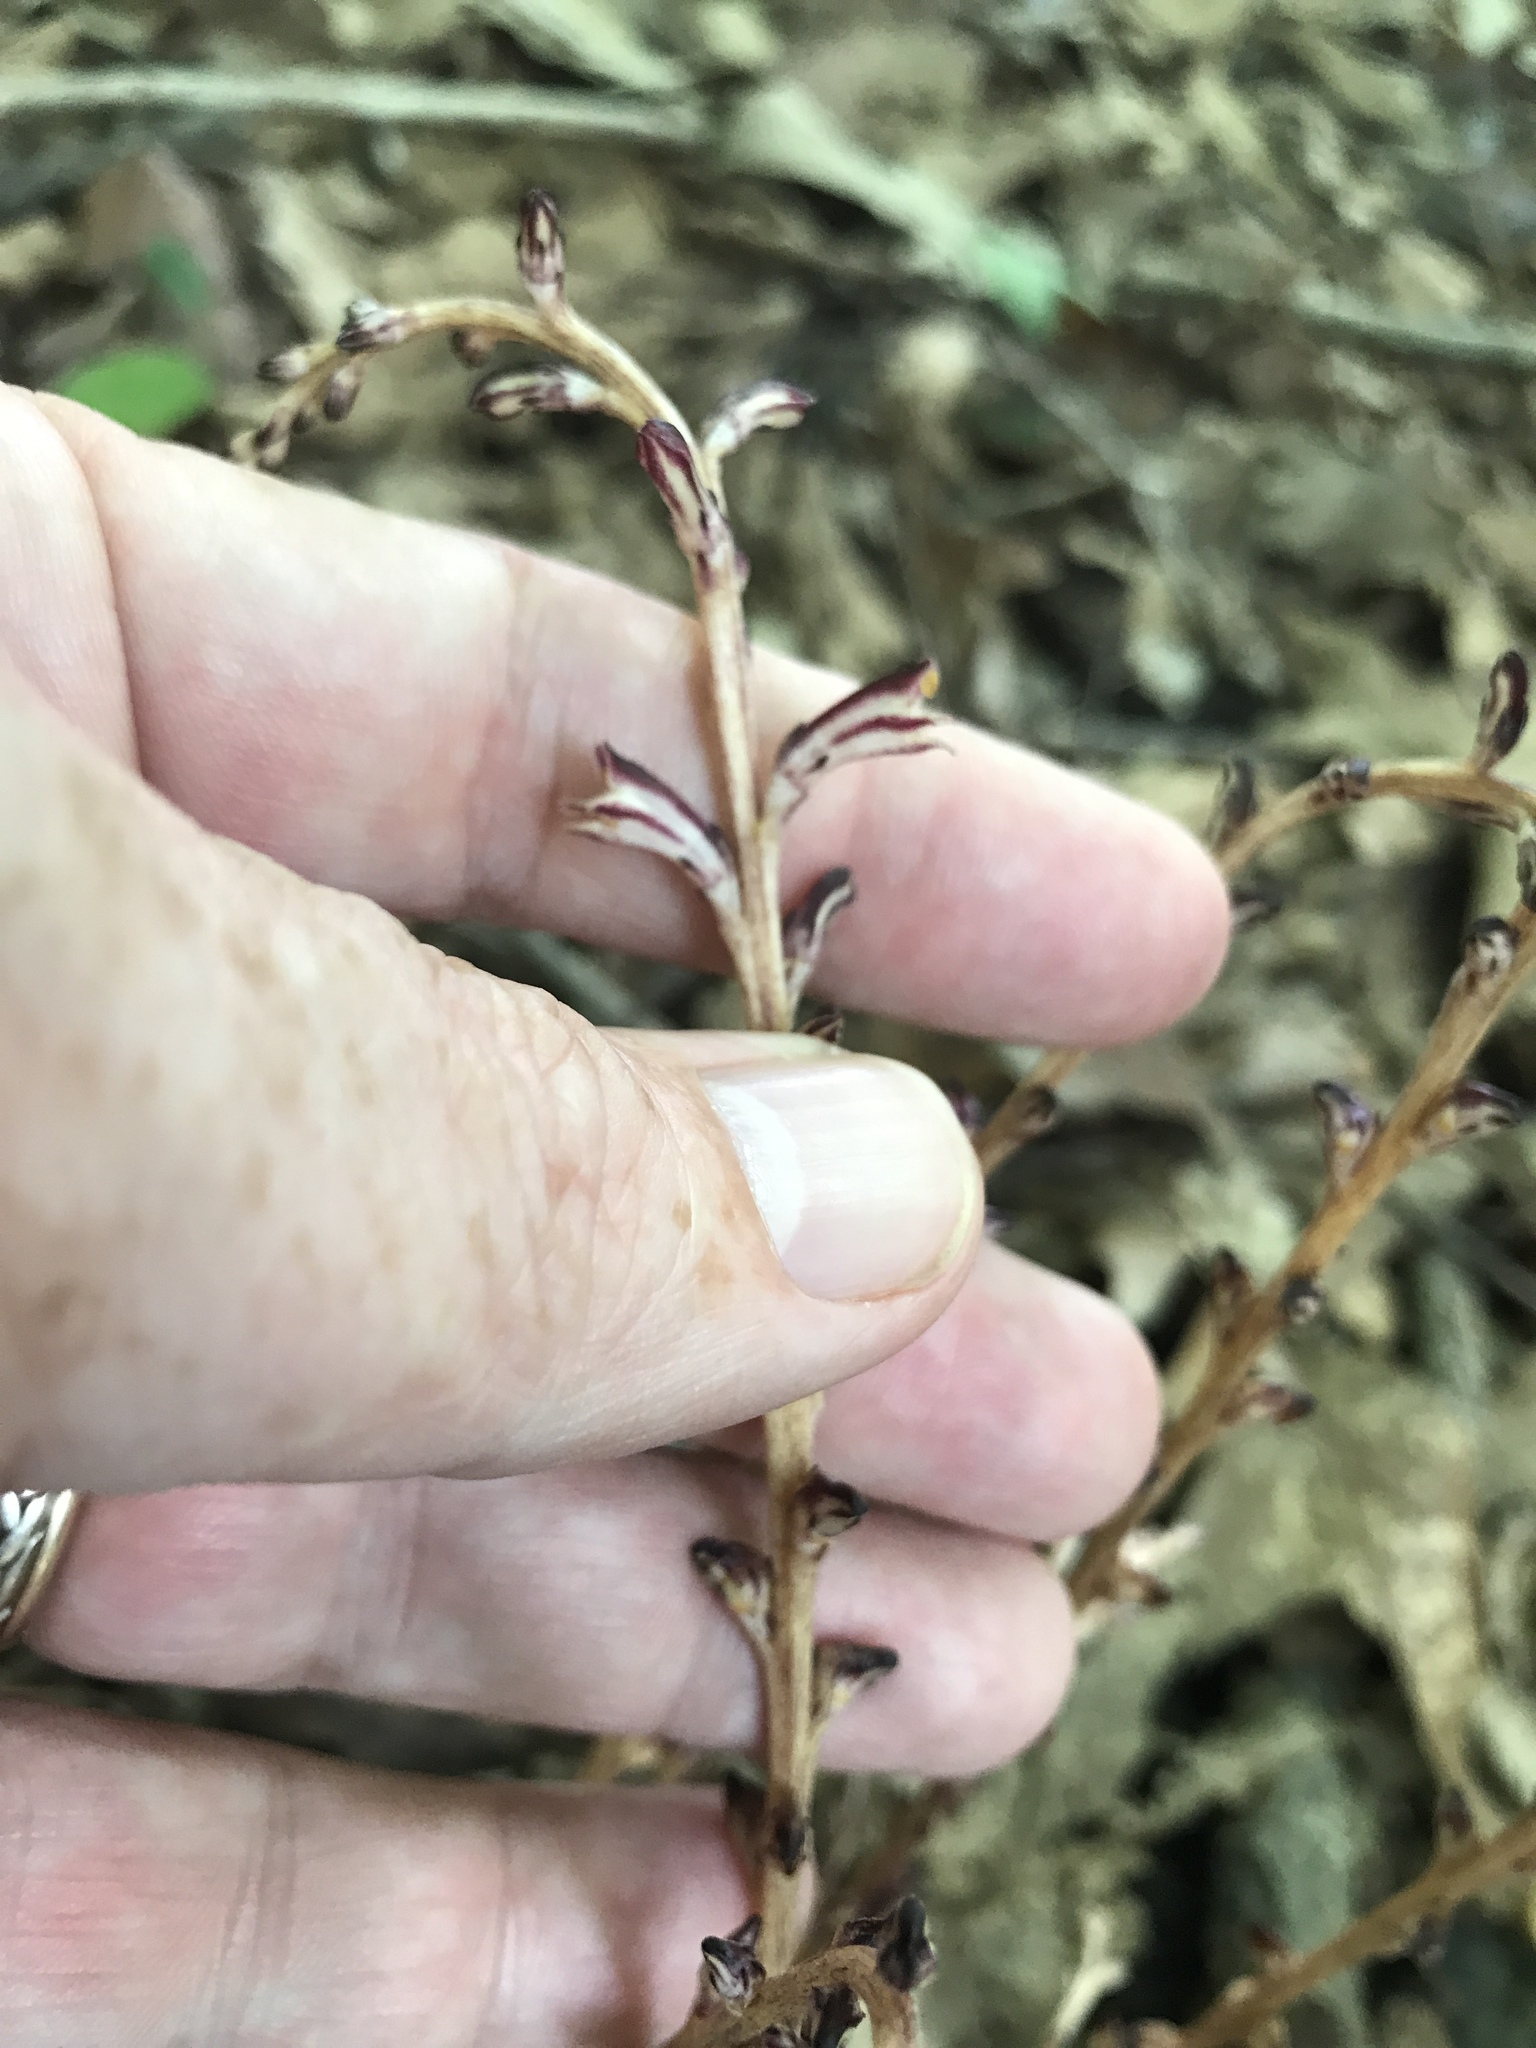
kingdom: Plantae
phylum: Tracheophyta
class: Magnoliopsida
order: Lamiales
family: Orobanchaceae
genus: Epifagus
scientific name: Epifagus virginiana
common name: Beechdrops
